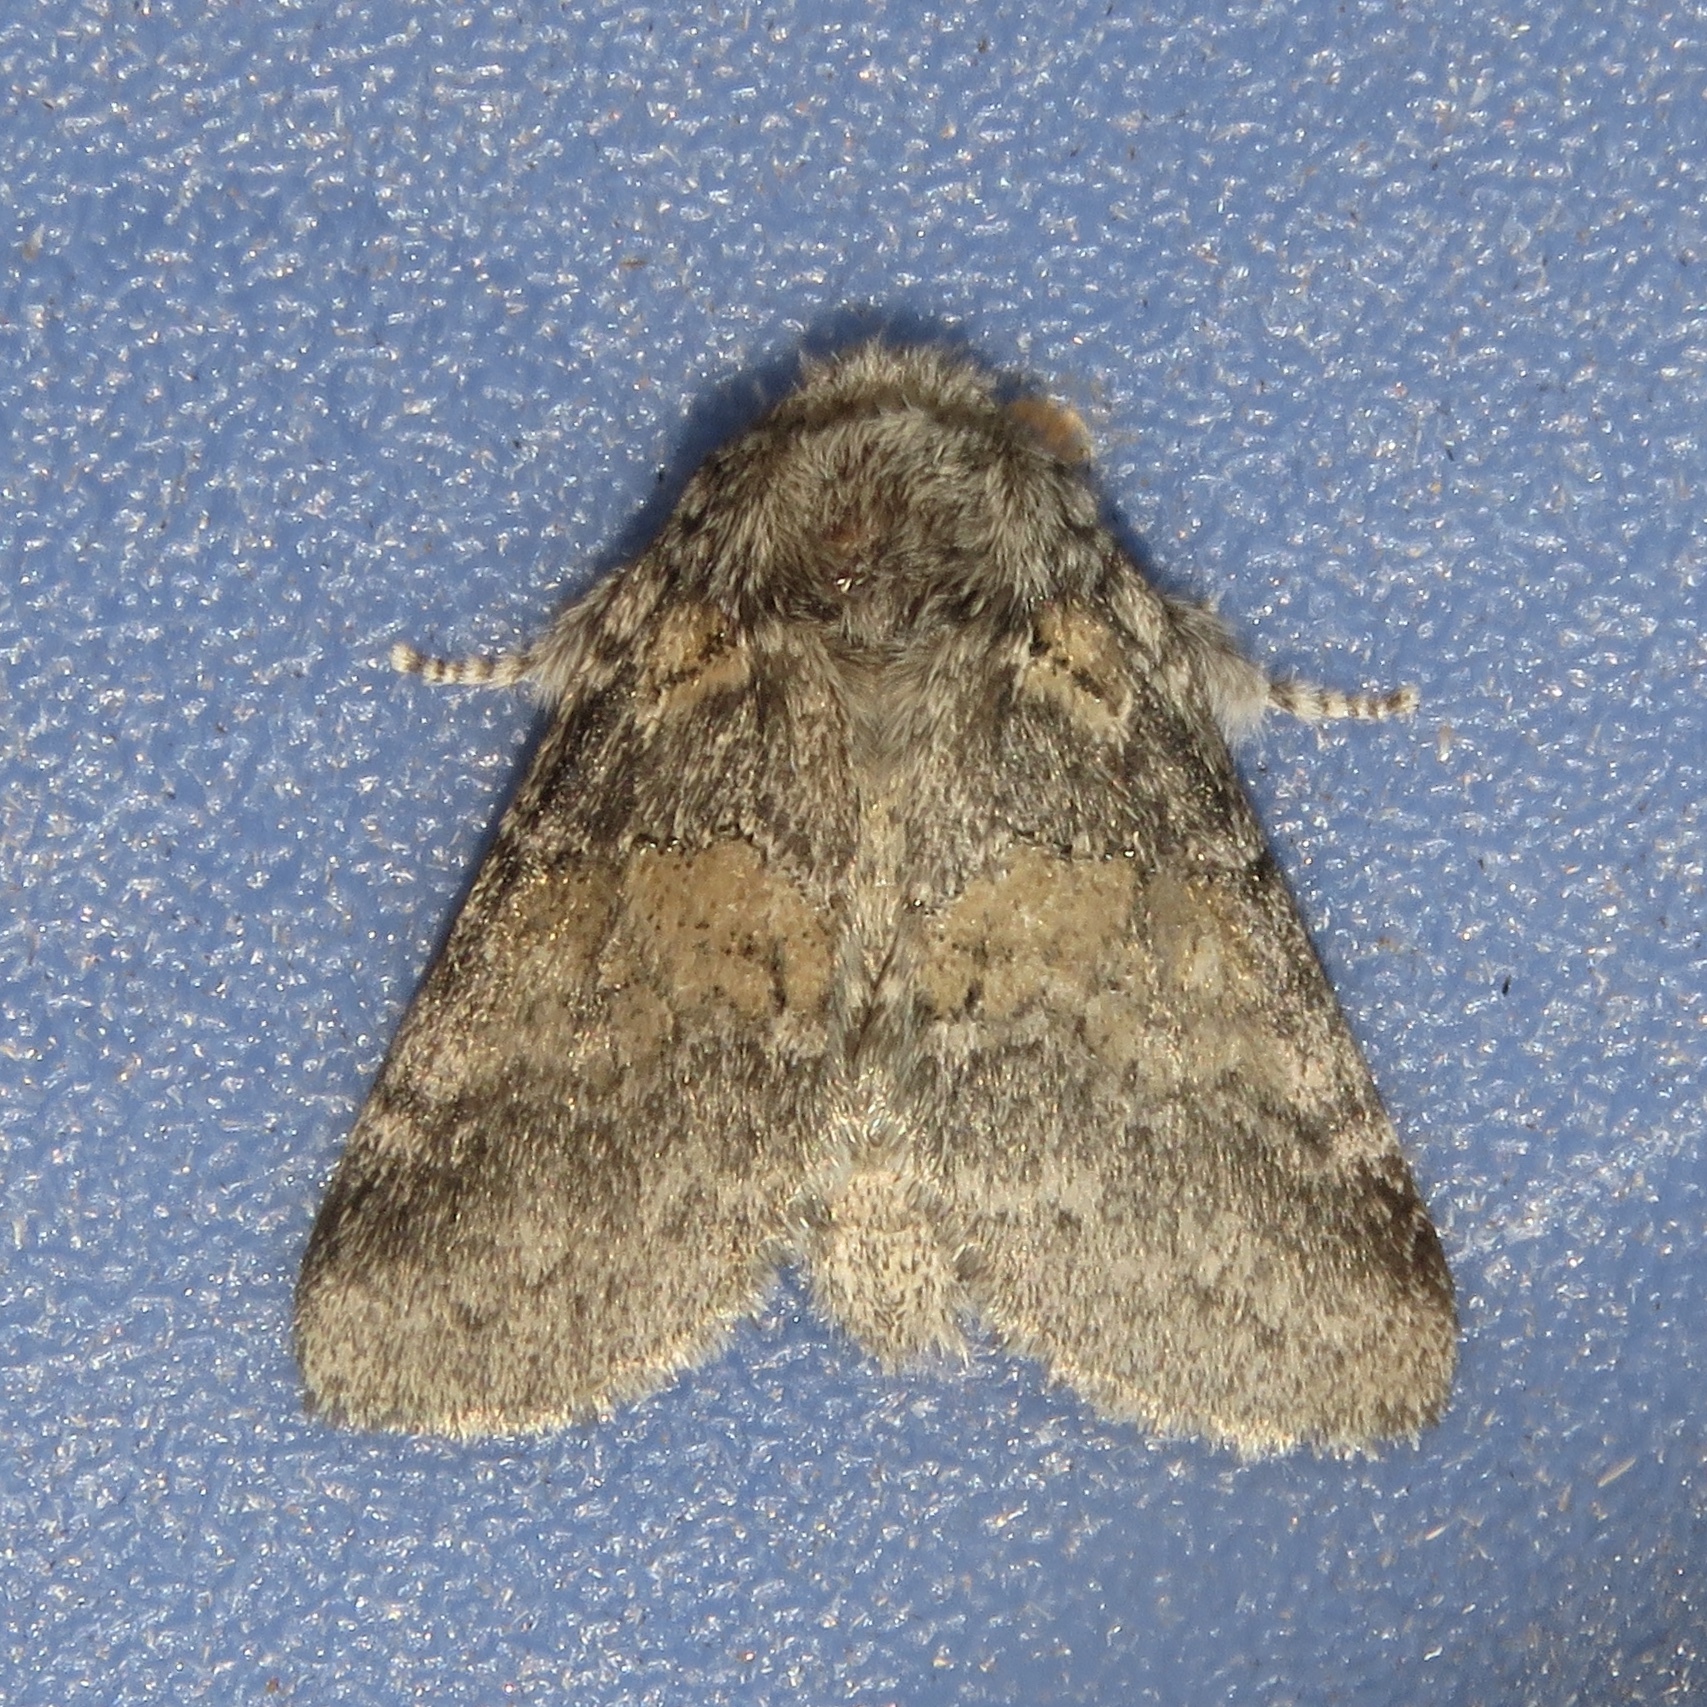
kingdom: Animalia
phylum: Arthropoda
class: Insecta
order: Lepidoptera
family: Notodontidae
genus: Gluphisia
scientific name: Gluphisia septentrionis
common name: Common gluphisia
